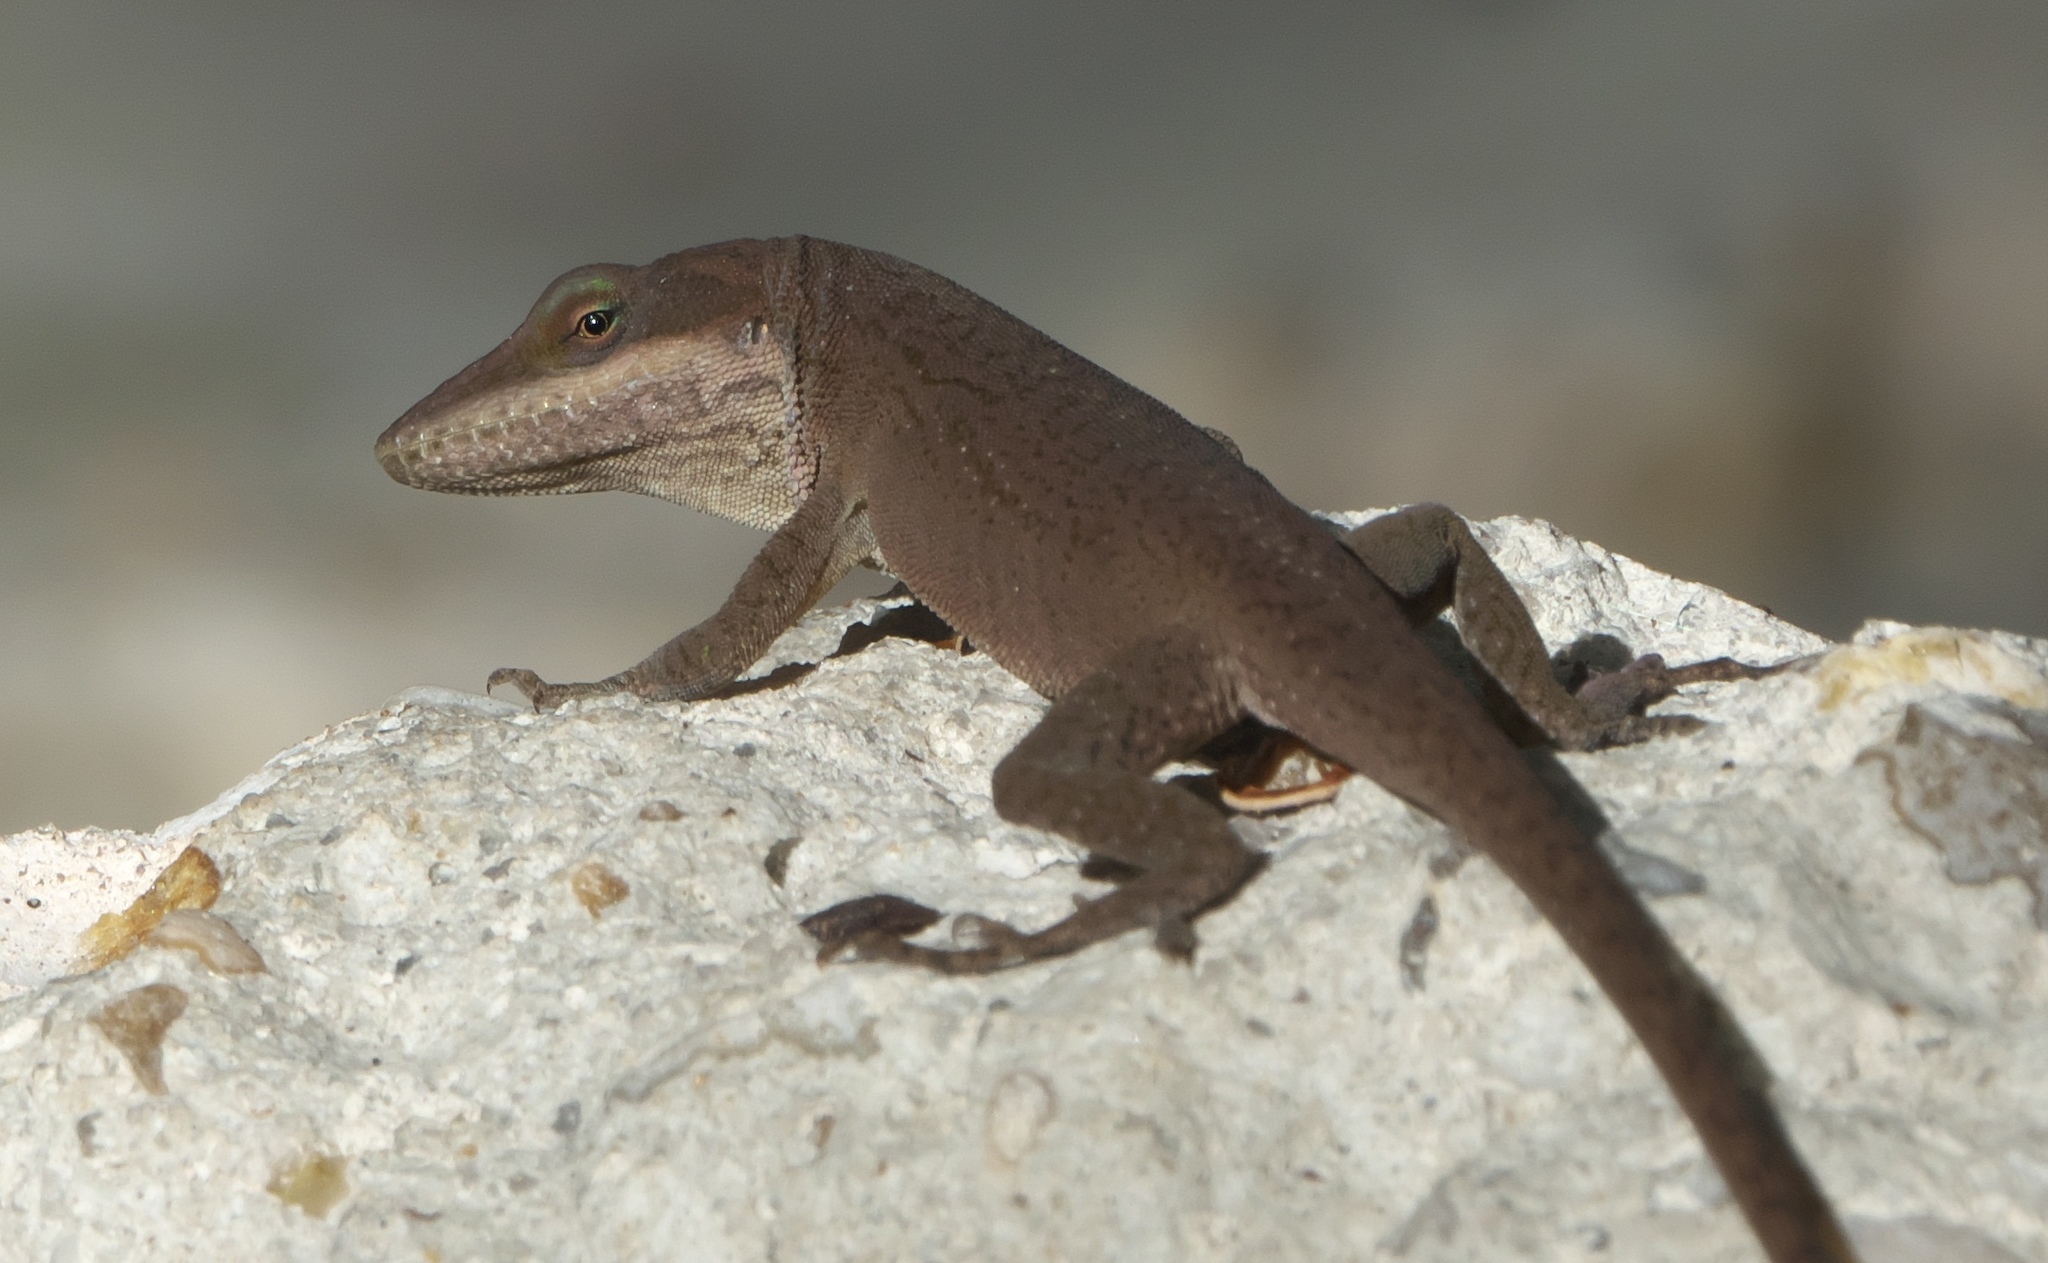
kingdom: Animalia
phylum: Chordata
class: Squamata
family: Dactyloidae
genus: Anolis
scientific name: Anolis carolinensis
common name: Green anole
